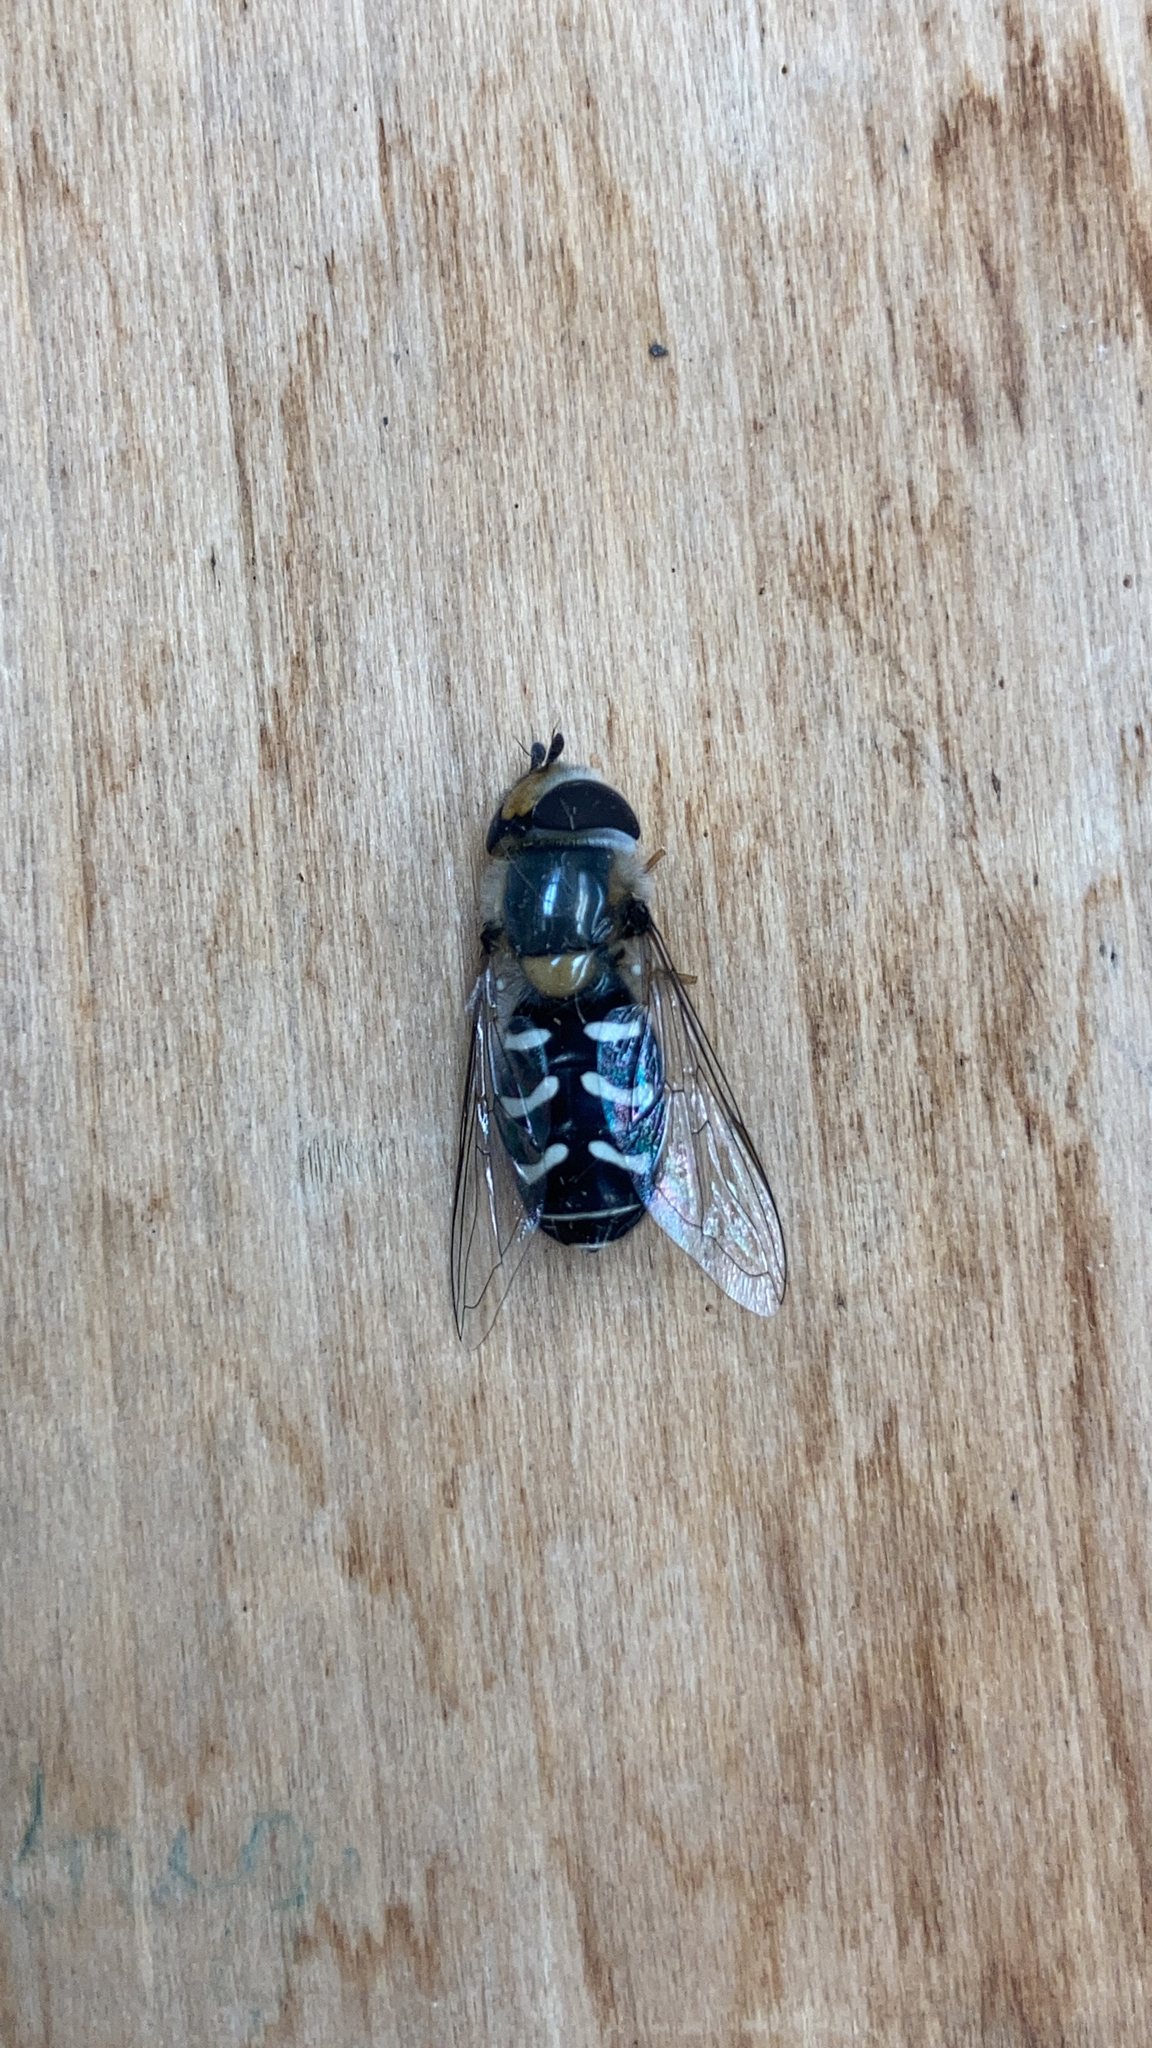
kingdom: Animalia
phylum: Arthropoda
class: Insecta
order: Diptera
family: Syrphidae
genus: Scaeva
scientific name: Scaeva affinis
